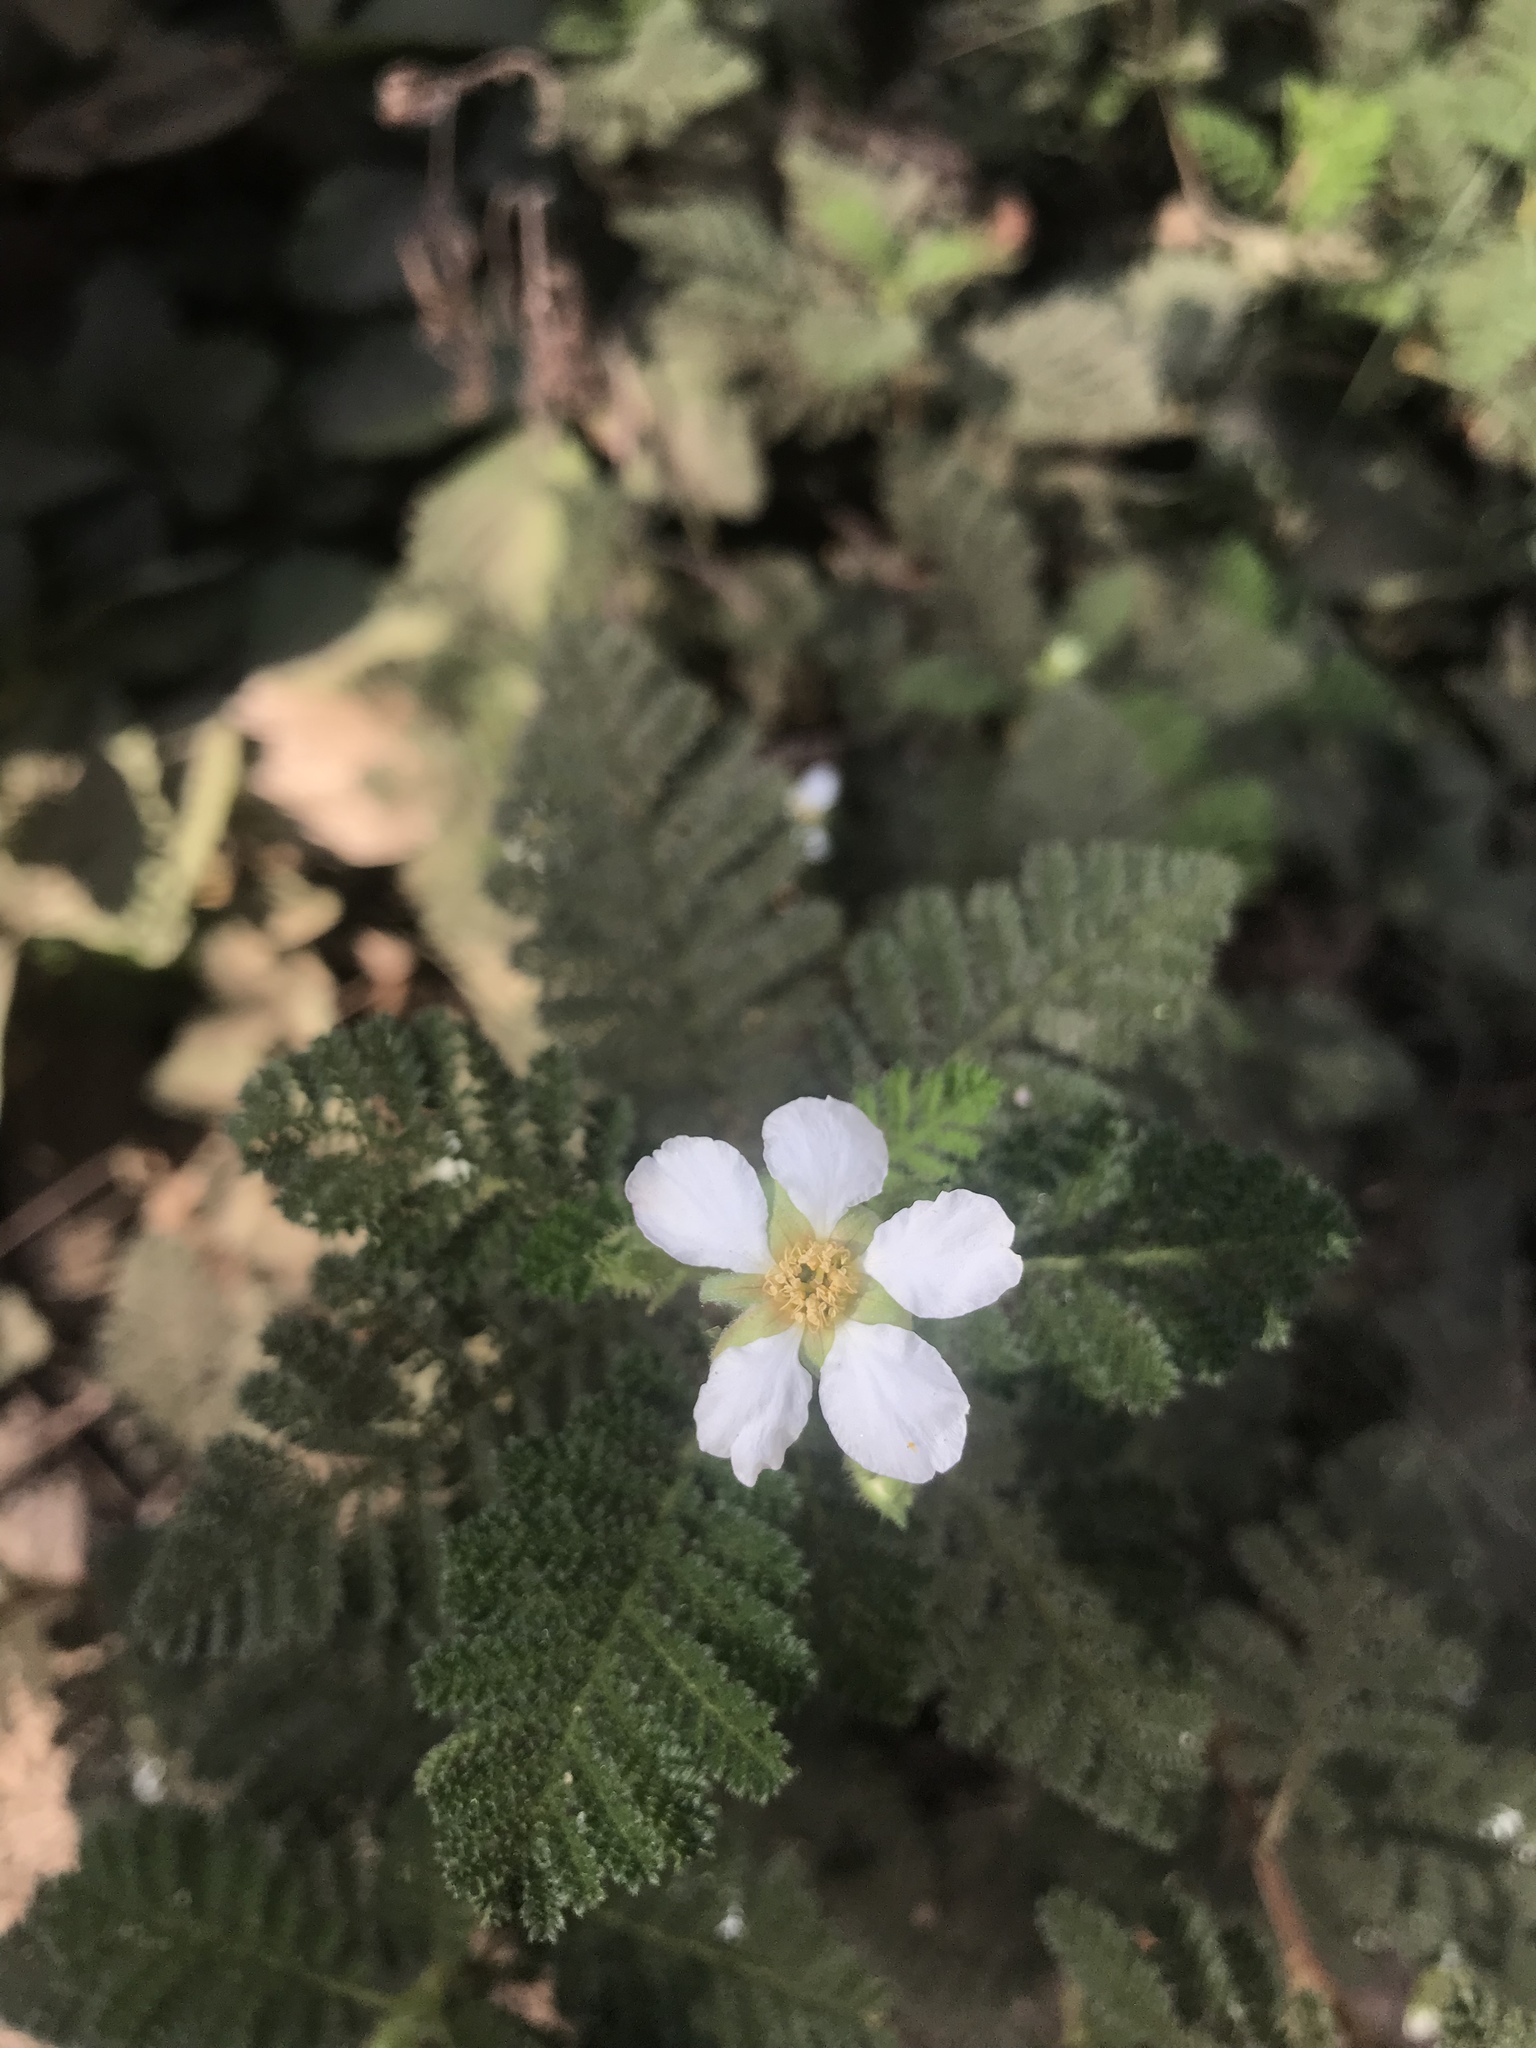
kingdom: Plantae
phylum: Tracheophyta
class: Magnoliopsida
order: Rosales
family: Rosaceae
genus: Chamaebatia
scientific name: Chamaebatia foliolosa
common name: Mountain misery
